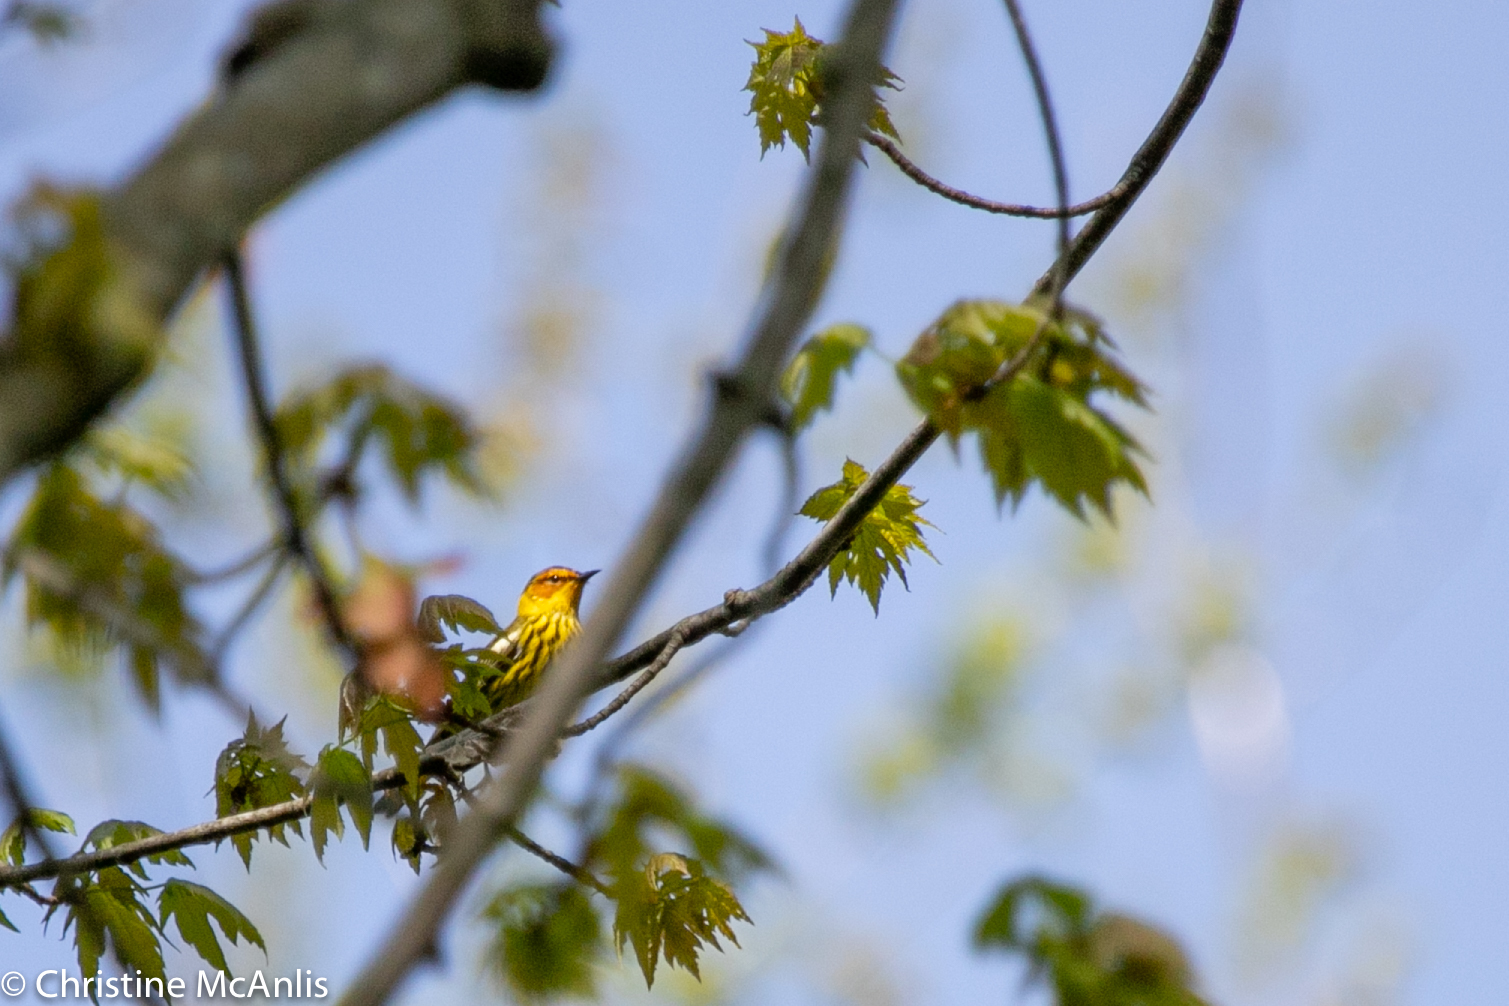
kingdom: Animalia
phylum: Chordata
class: Aves
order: Passeriformes
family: Parulidae
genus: Setophaga
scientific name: Setophaga tigrina
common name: Cape may warbler
